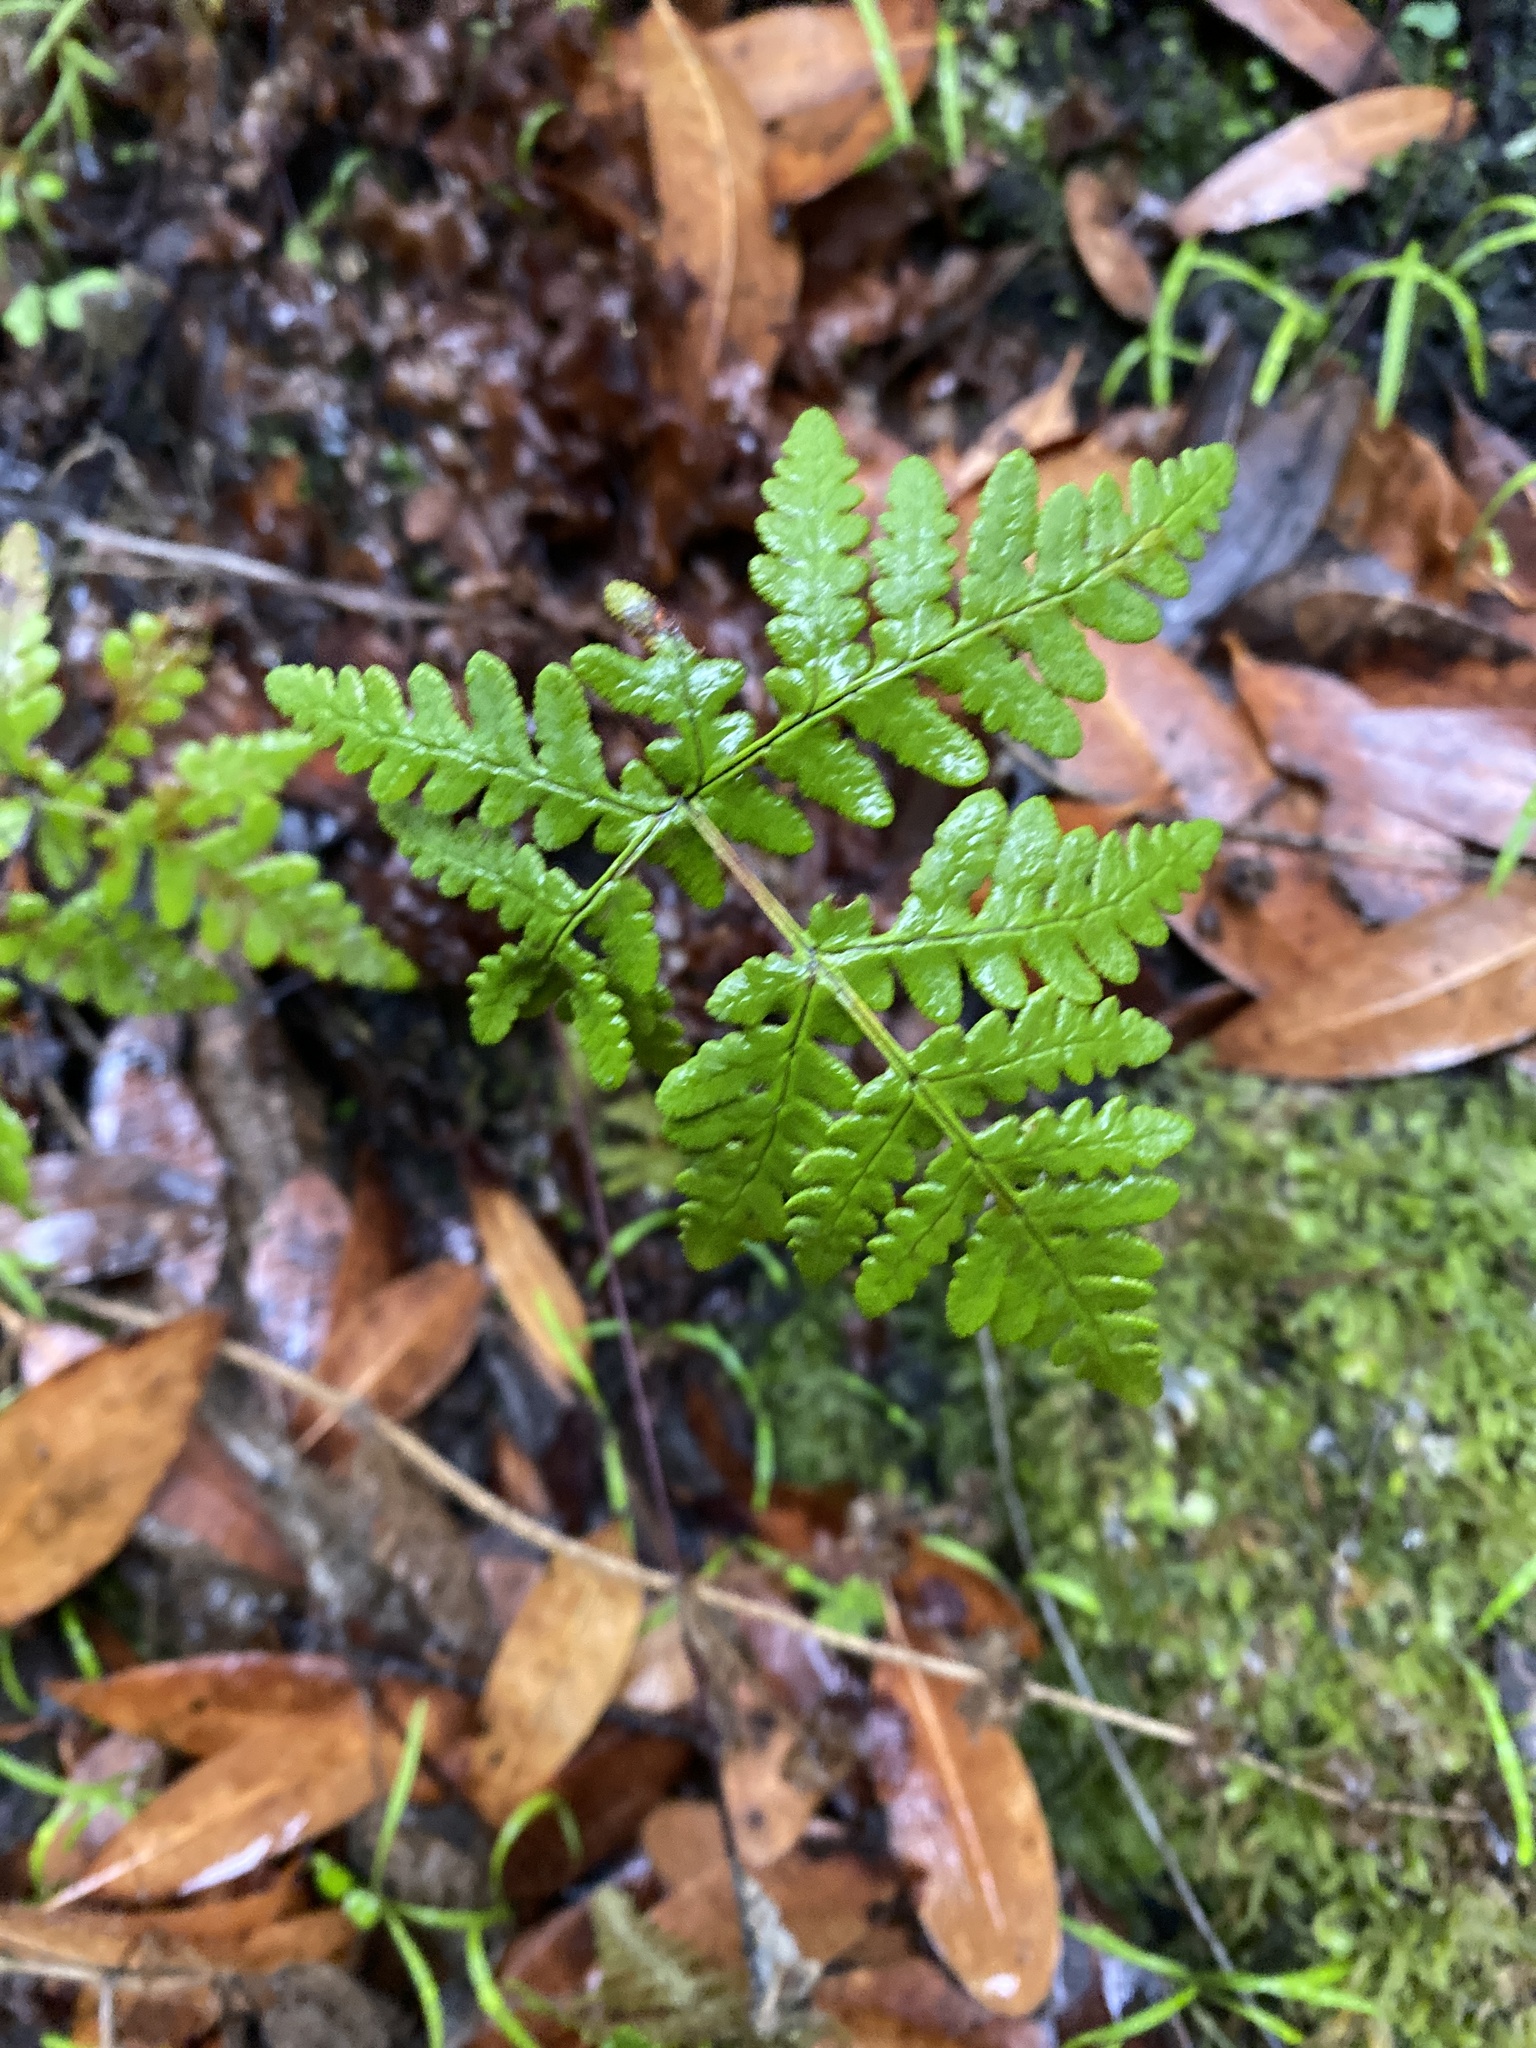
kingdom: Plantae
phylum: Tracheophyta
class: Polypodiopsida
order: Polypodiales
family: Pteridaceae
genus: Pentagramma
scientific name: Pentagramma triangularis
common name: Gold fern
